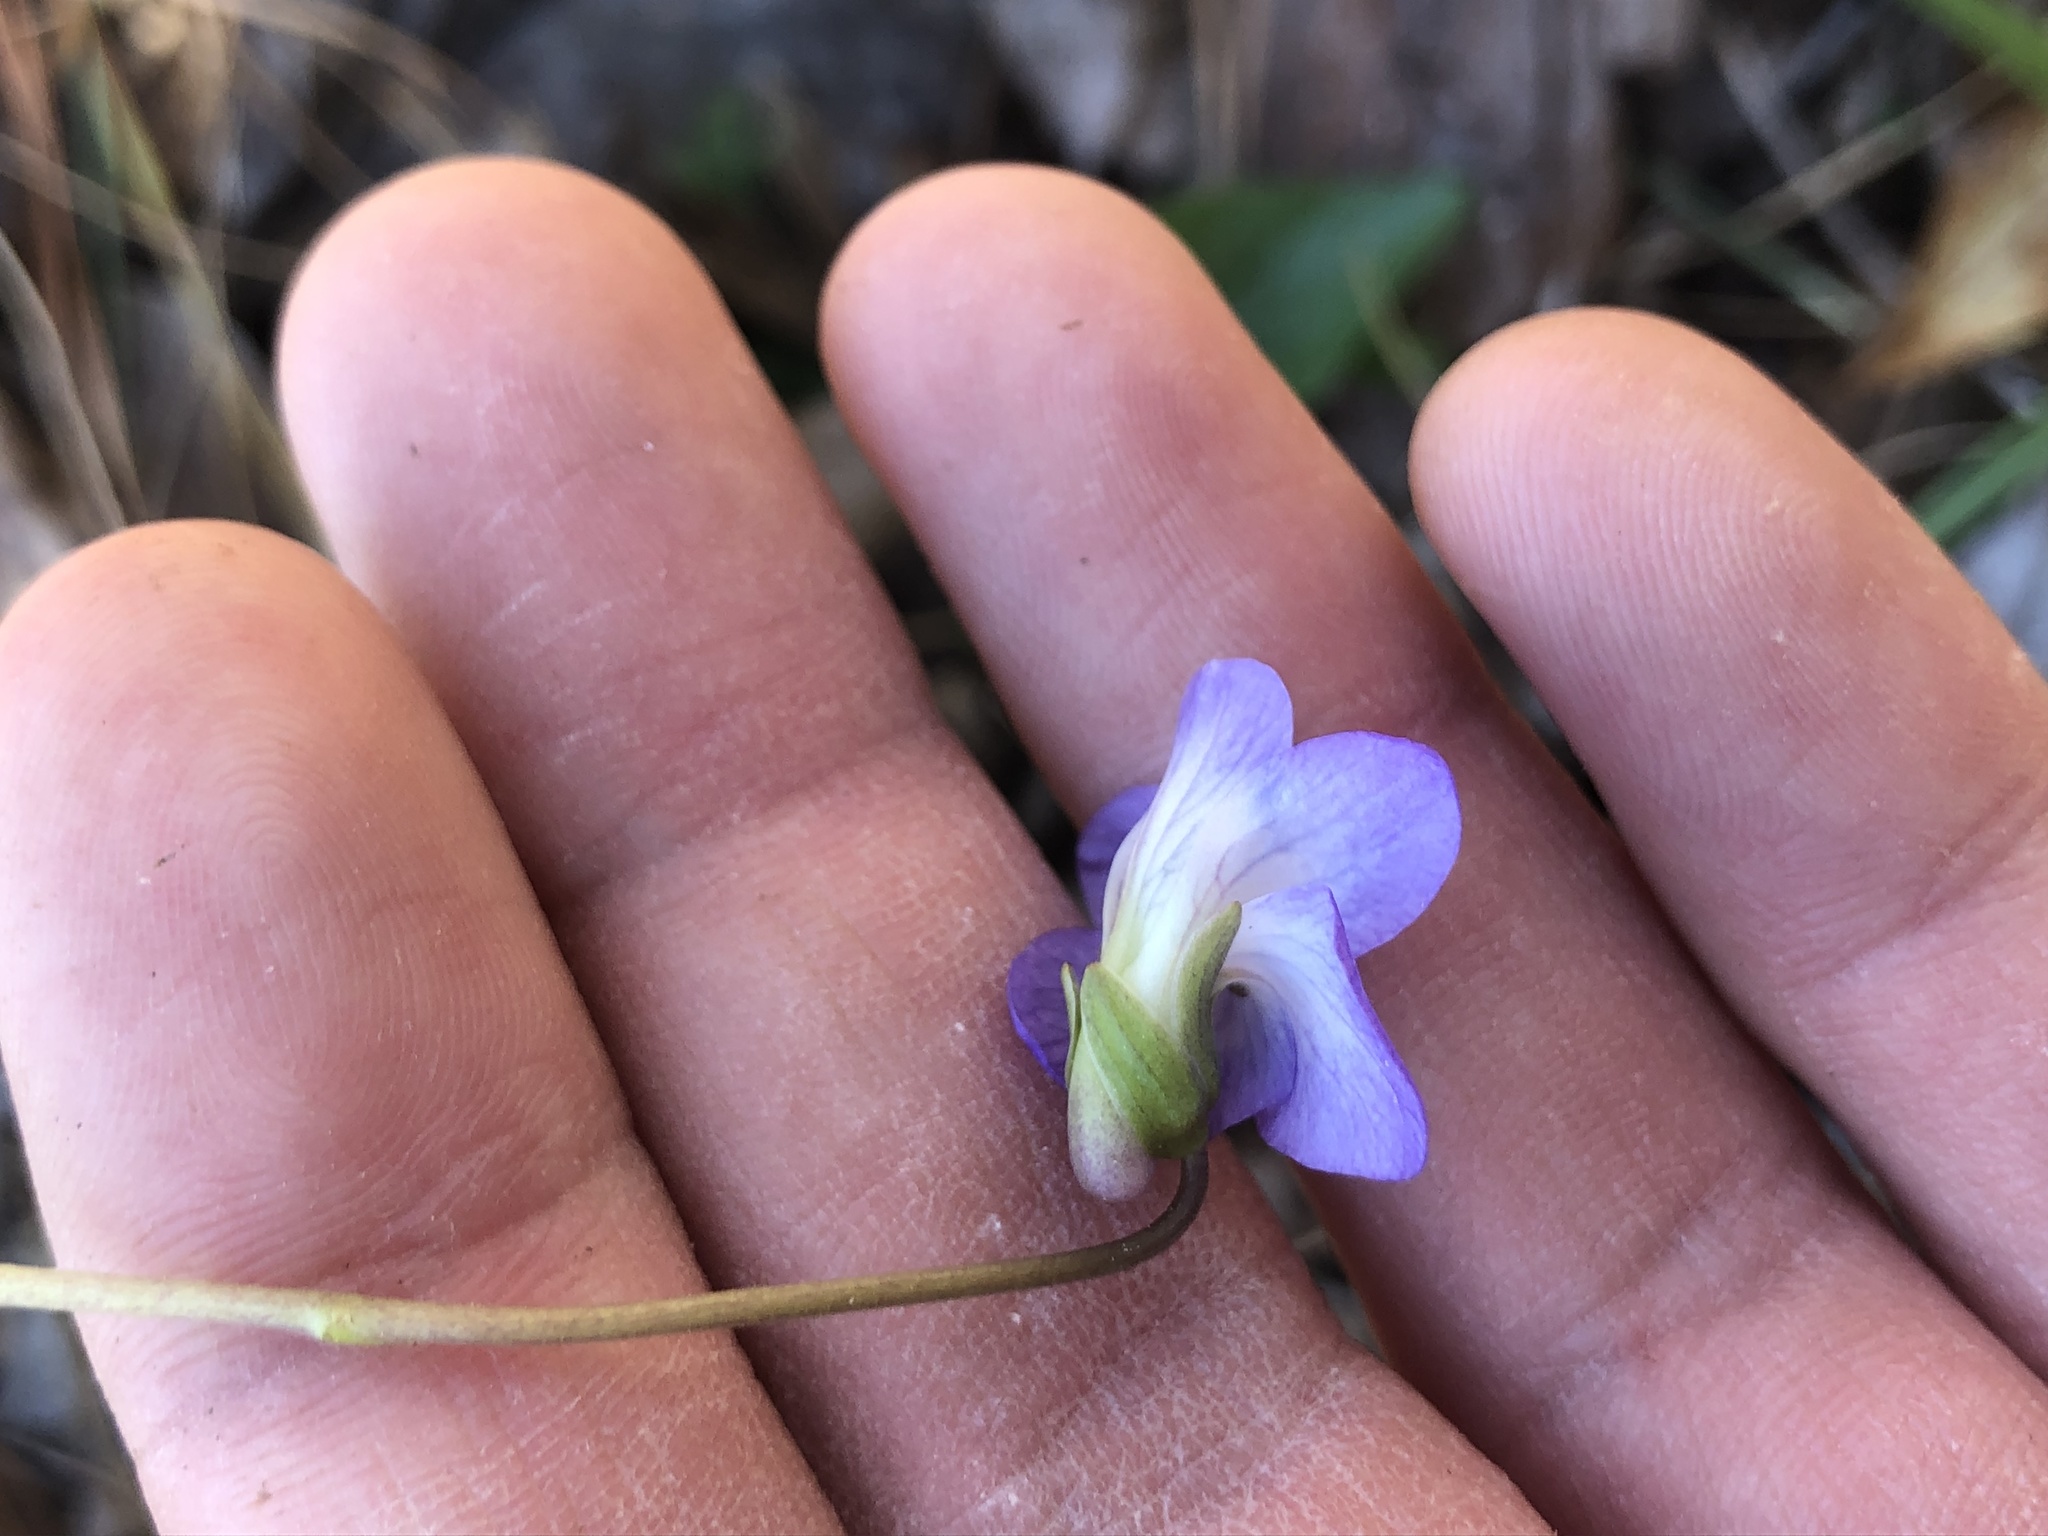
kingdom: Plantae
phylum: Tracheophyta
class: Magnoliopsida
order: Malpighiales
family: Violaceae
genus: Viola
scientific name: Viola langloisii
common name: Langlois' violet
